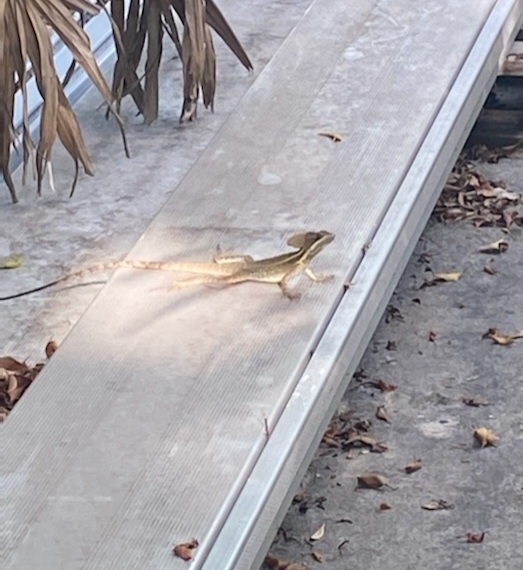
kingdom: Animalia
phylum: Chordata
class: Squamata
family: Corytophanidae
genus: Basiliscus
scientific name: Basiliscus vittatus
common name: Brown basilisk
